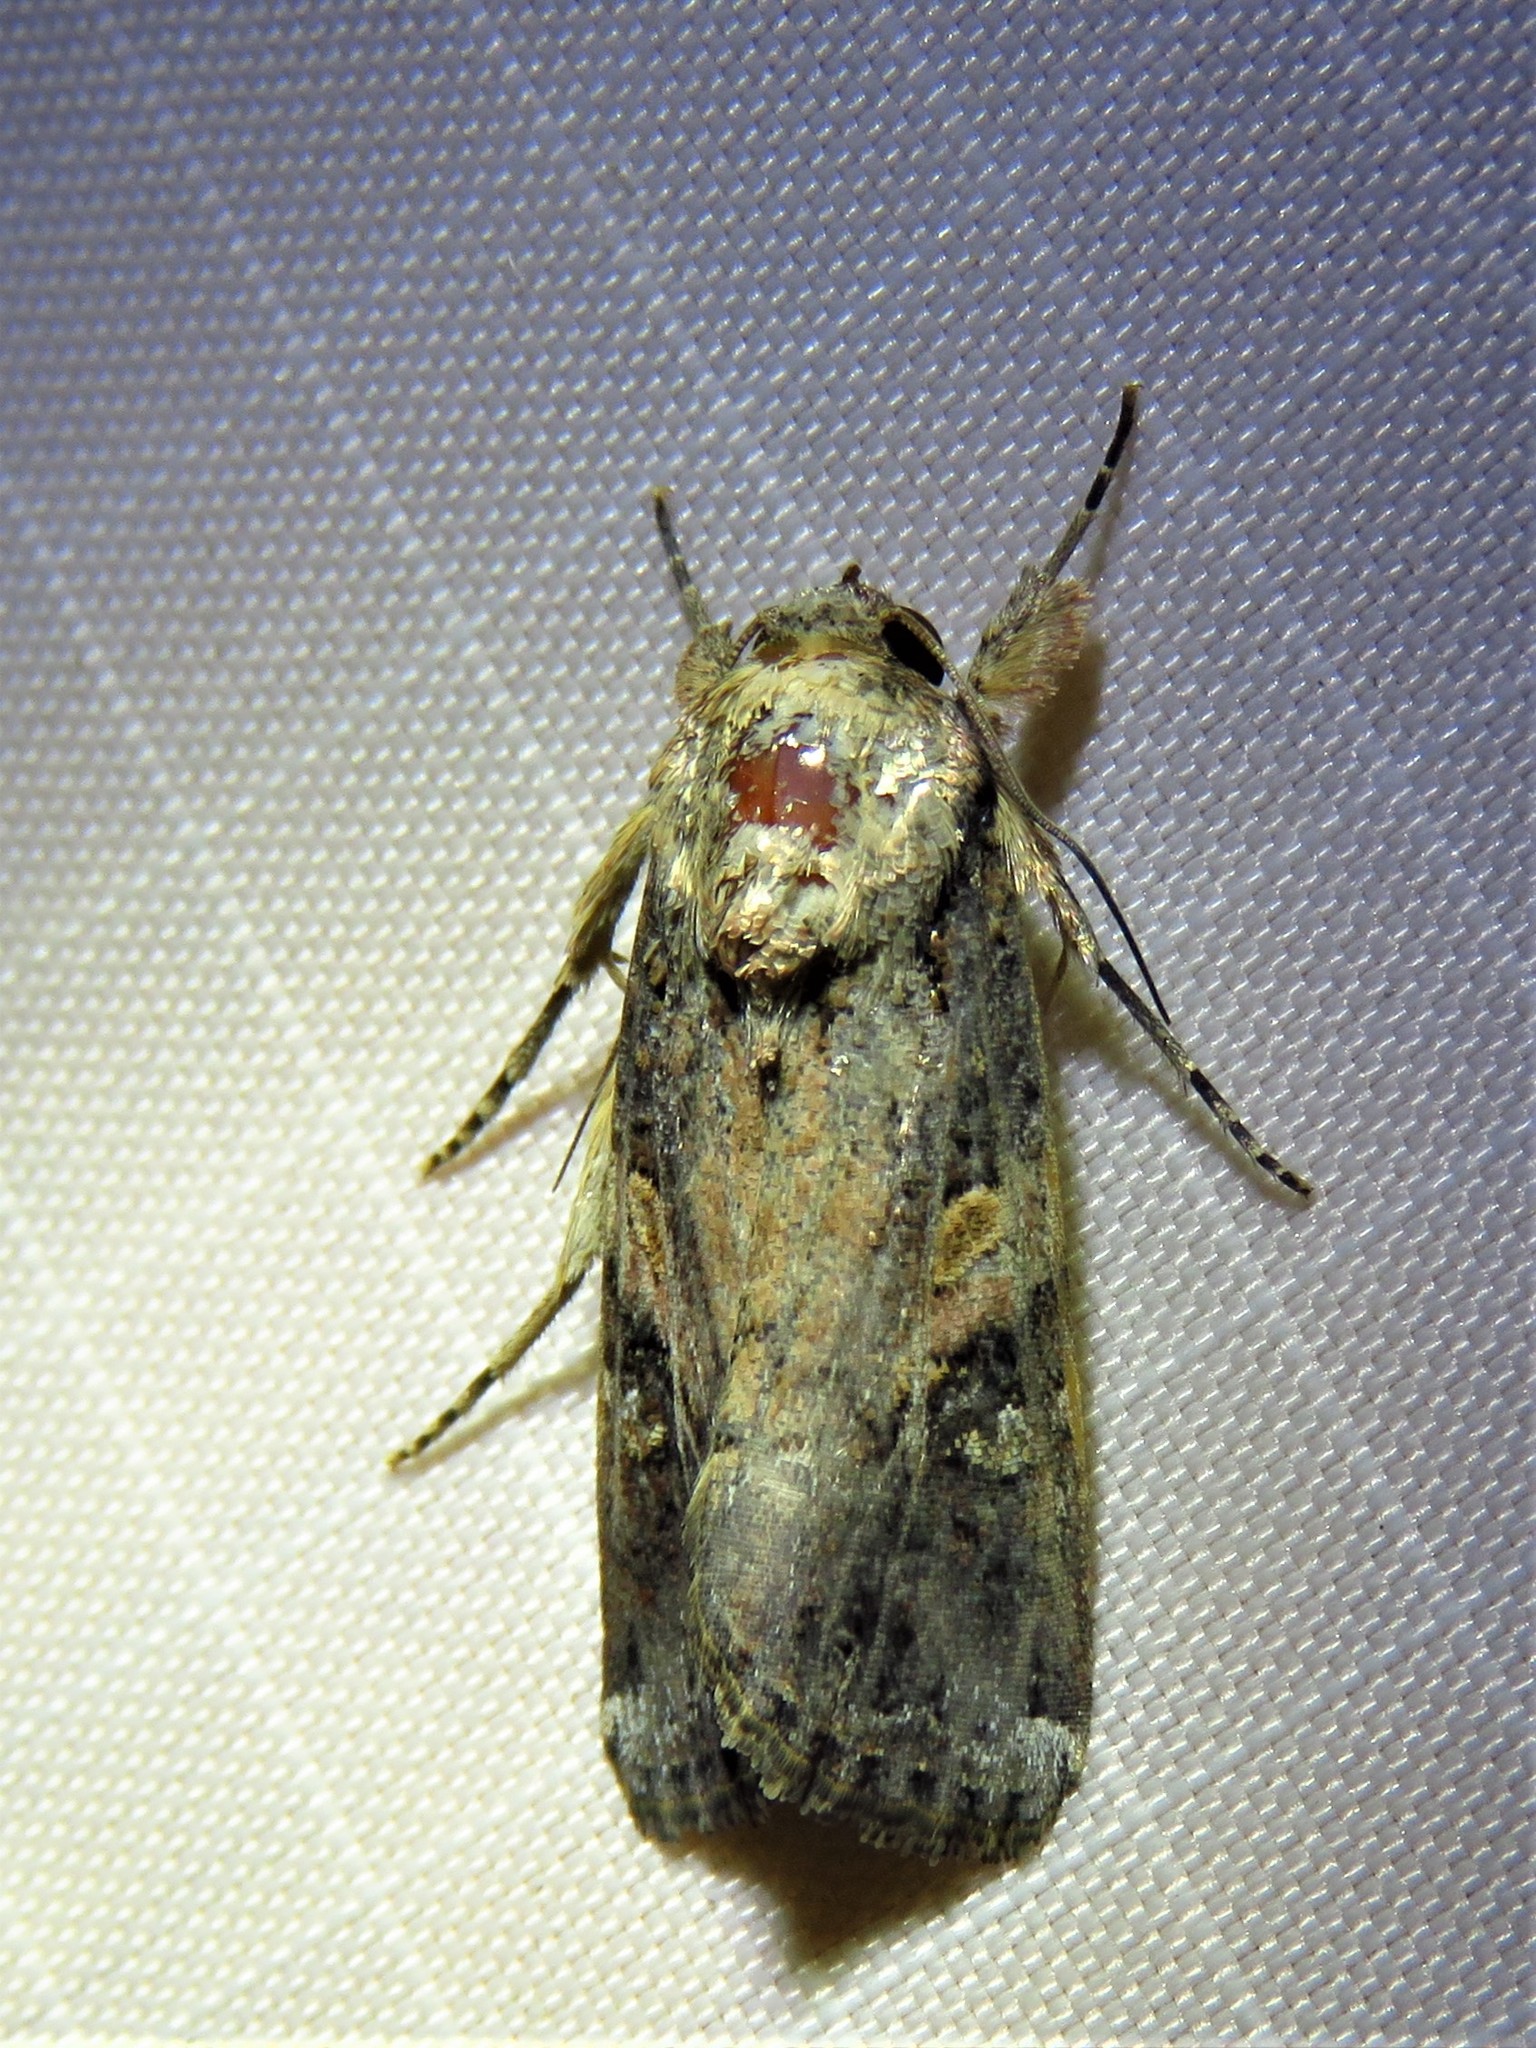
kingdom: Animalia
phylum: Arthropoda
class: Insecta
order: Lepidoptera
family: Noctuidae
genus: Spodoptera
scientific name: Spodoptera frugiperda
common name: Fall armyworm
